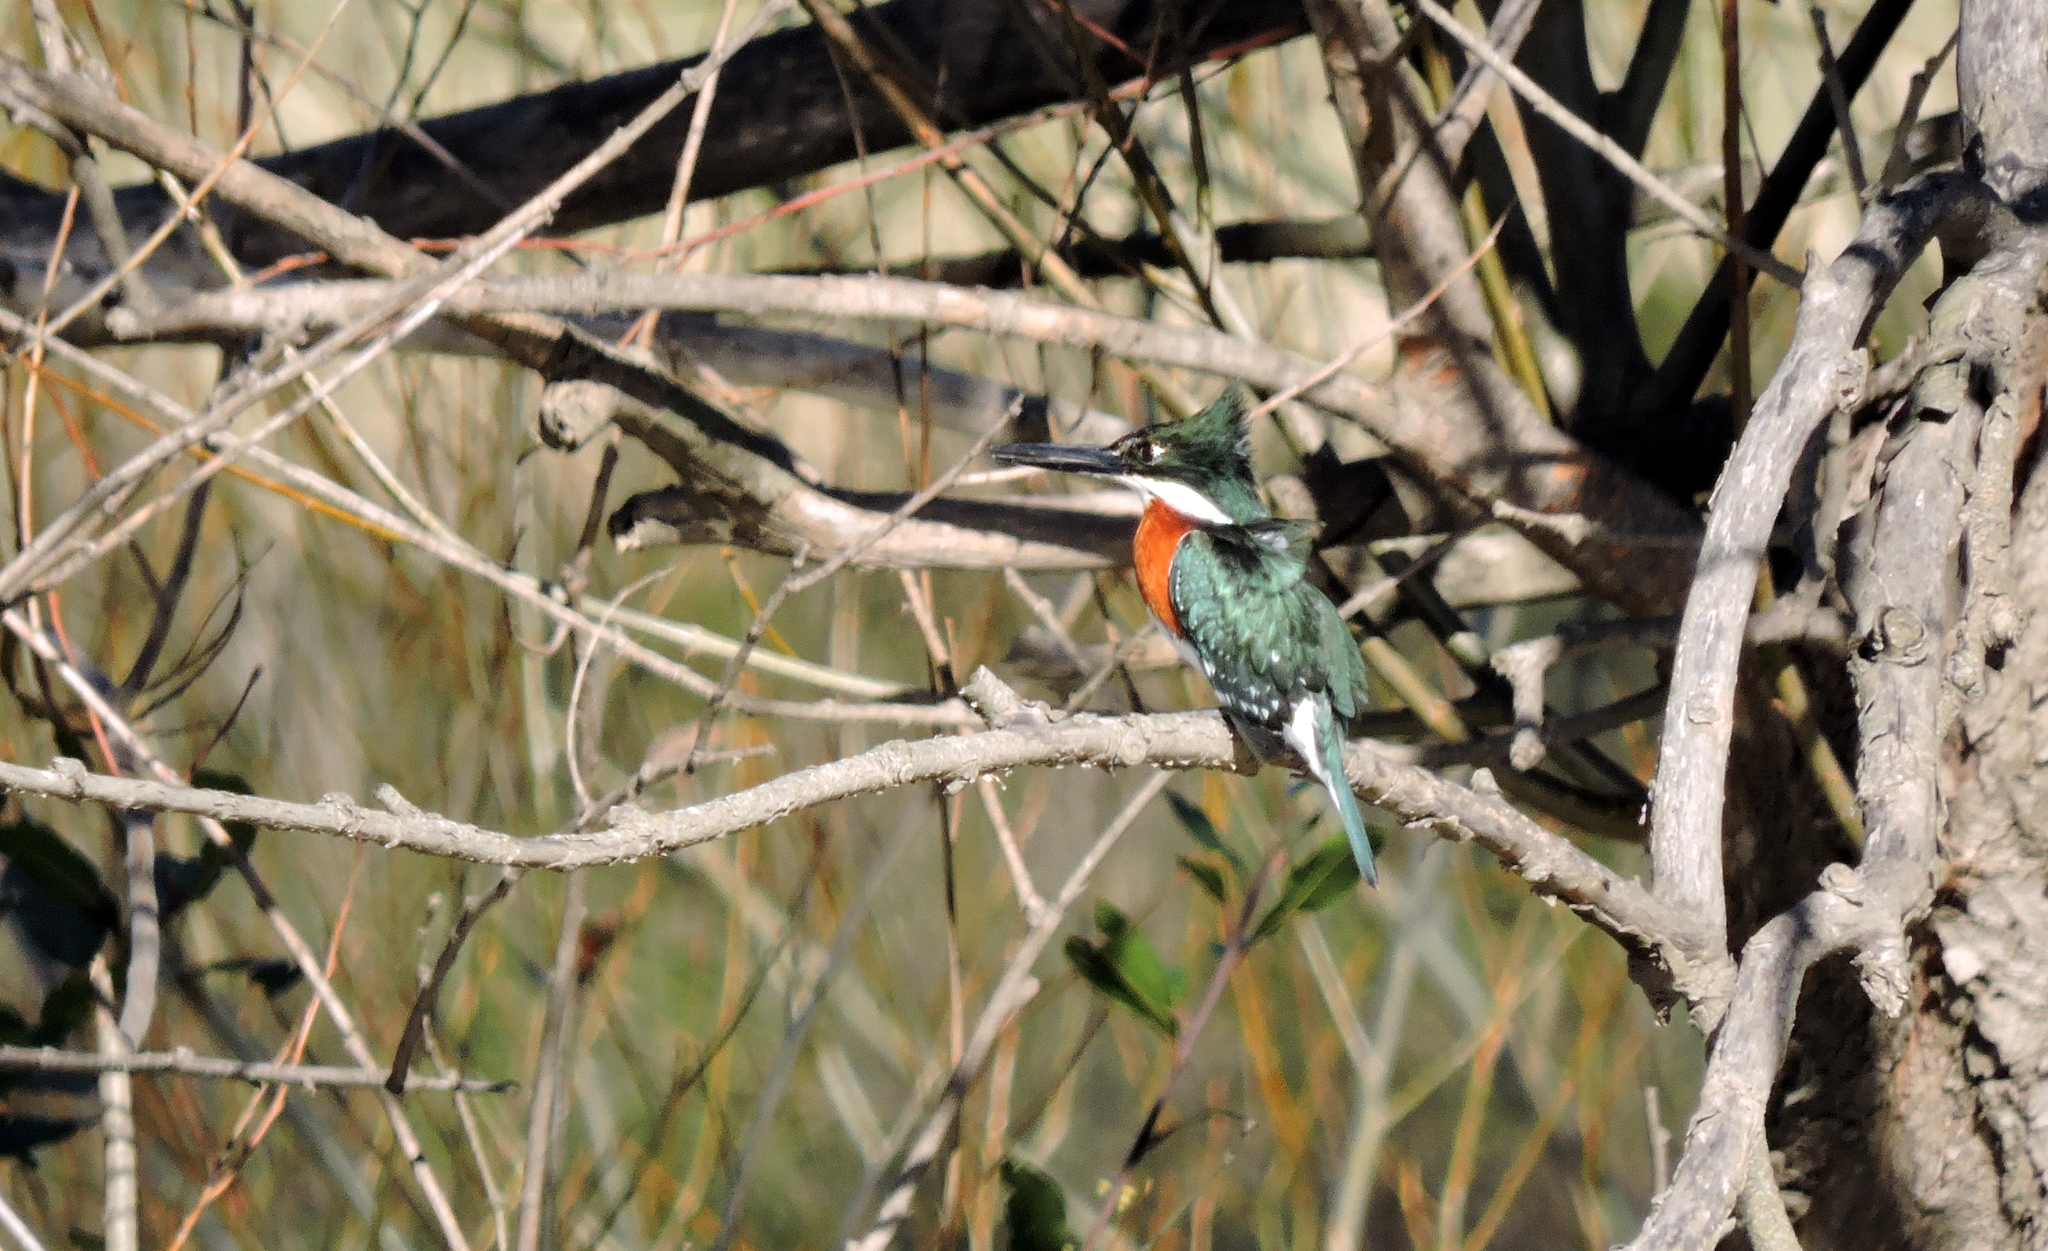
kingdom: Animalia
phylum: Chordata
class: Aves
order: Coraciiformes
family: Alcedinidae
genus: Chloroceryle
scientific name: Chloroceryle americana
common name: Green kingfisher
